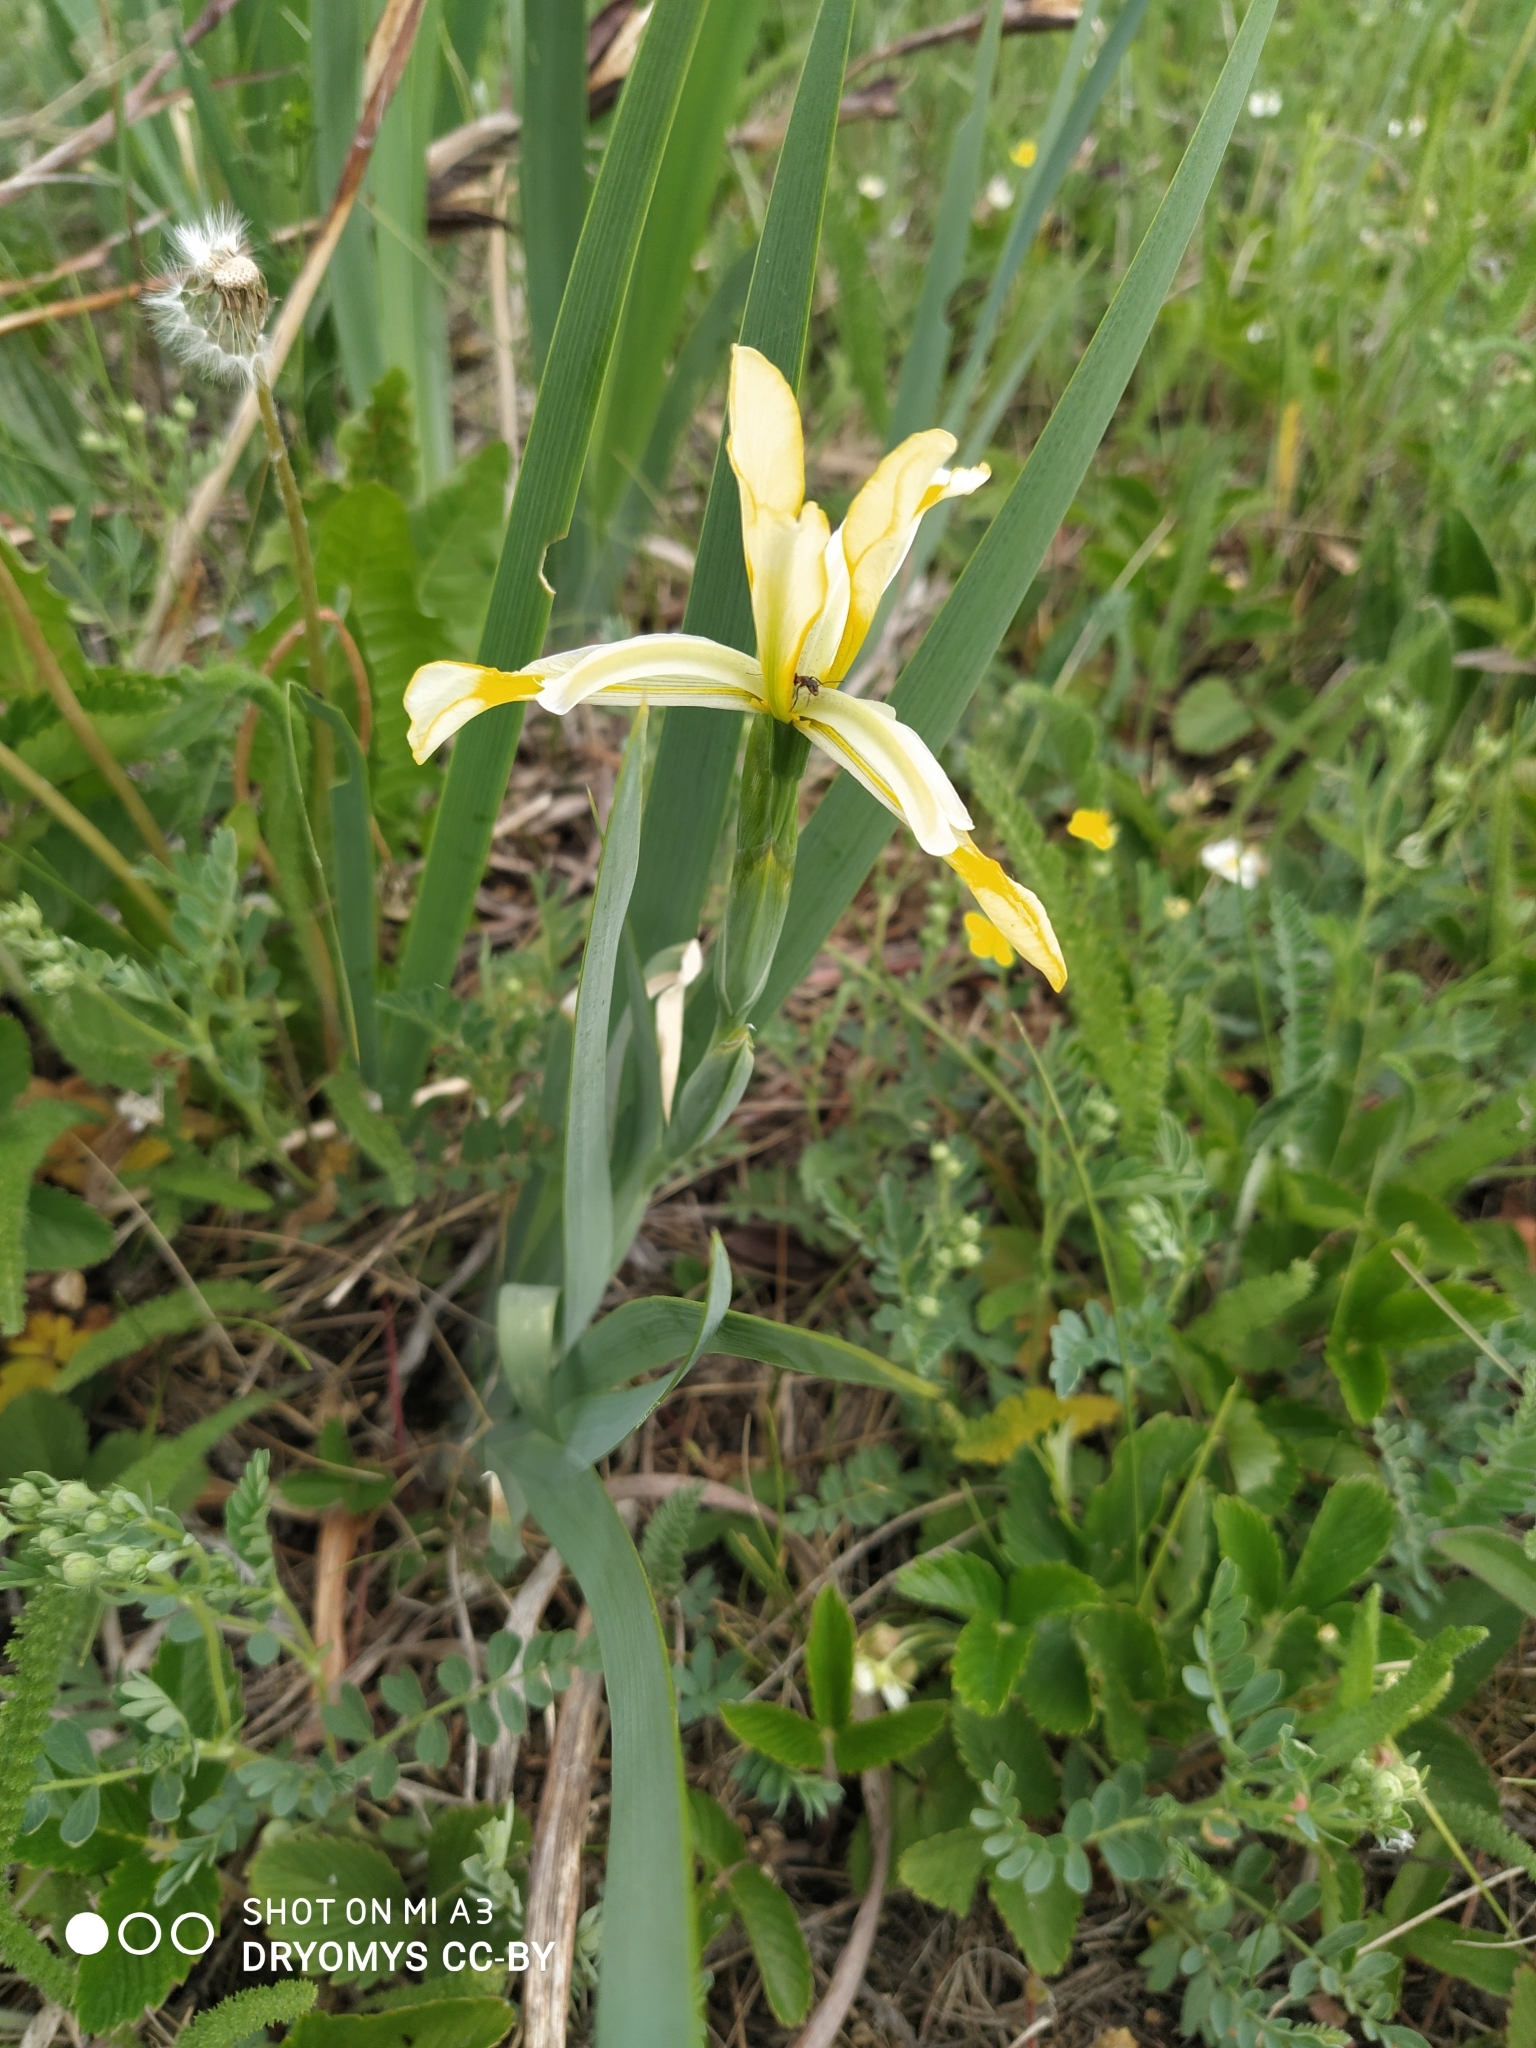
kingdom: Plantae
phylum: Tracheophyta
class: Liliopsida
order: Asparagales
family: Iridaceae
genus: Iris
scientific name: Iris halophila
